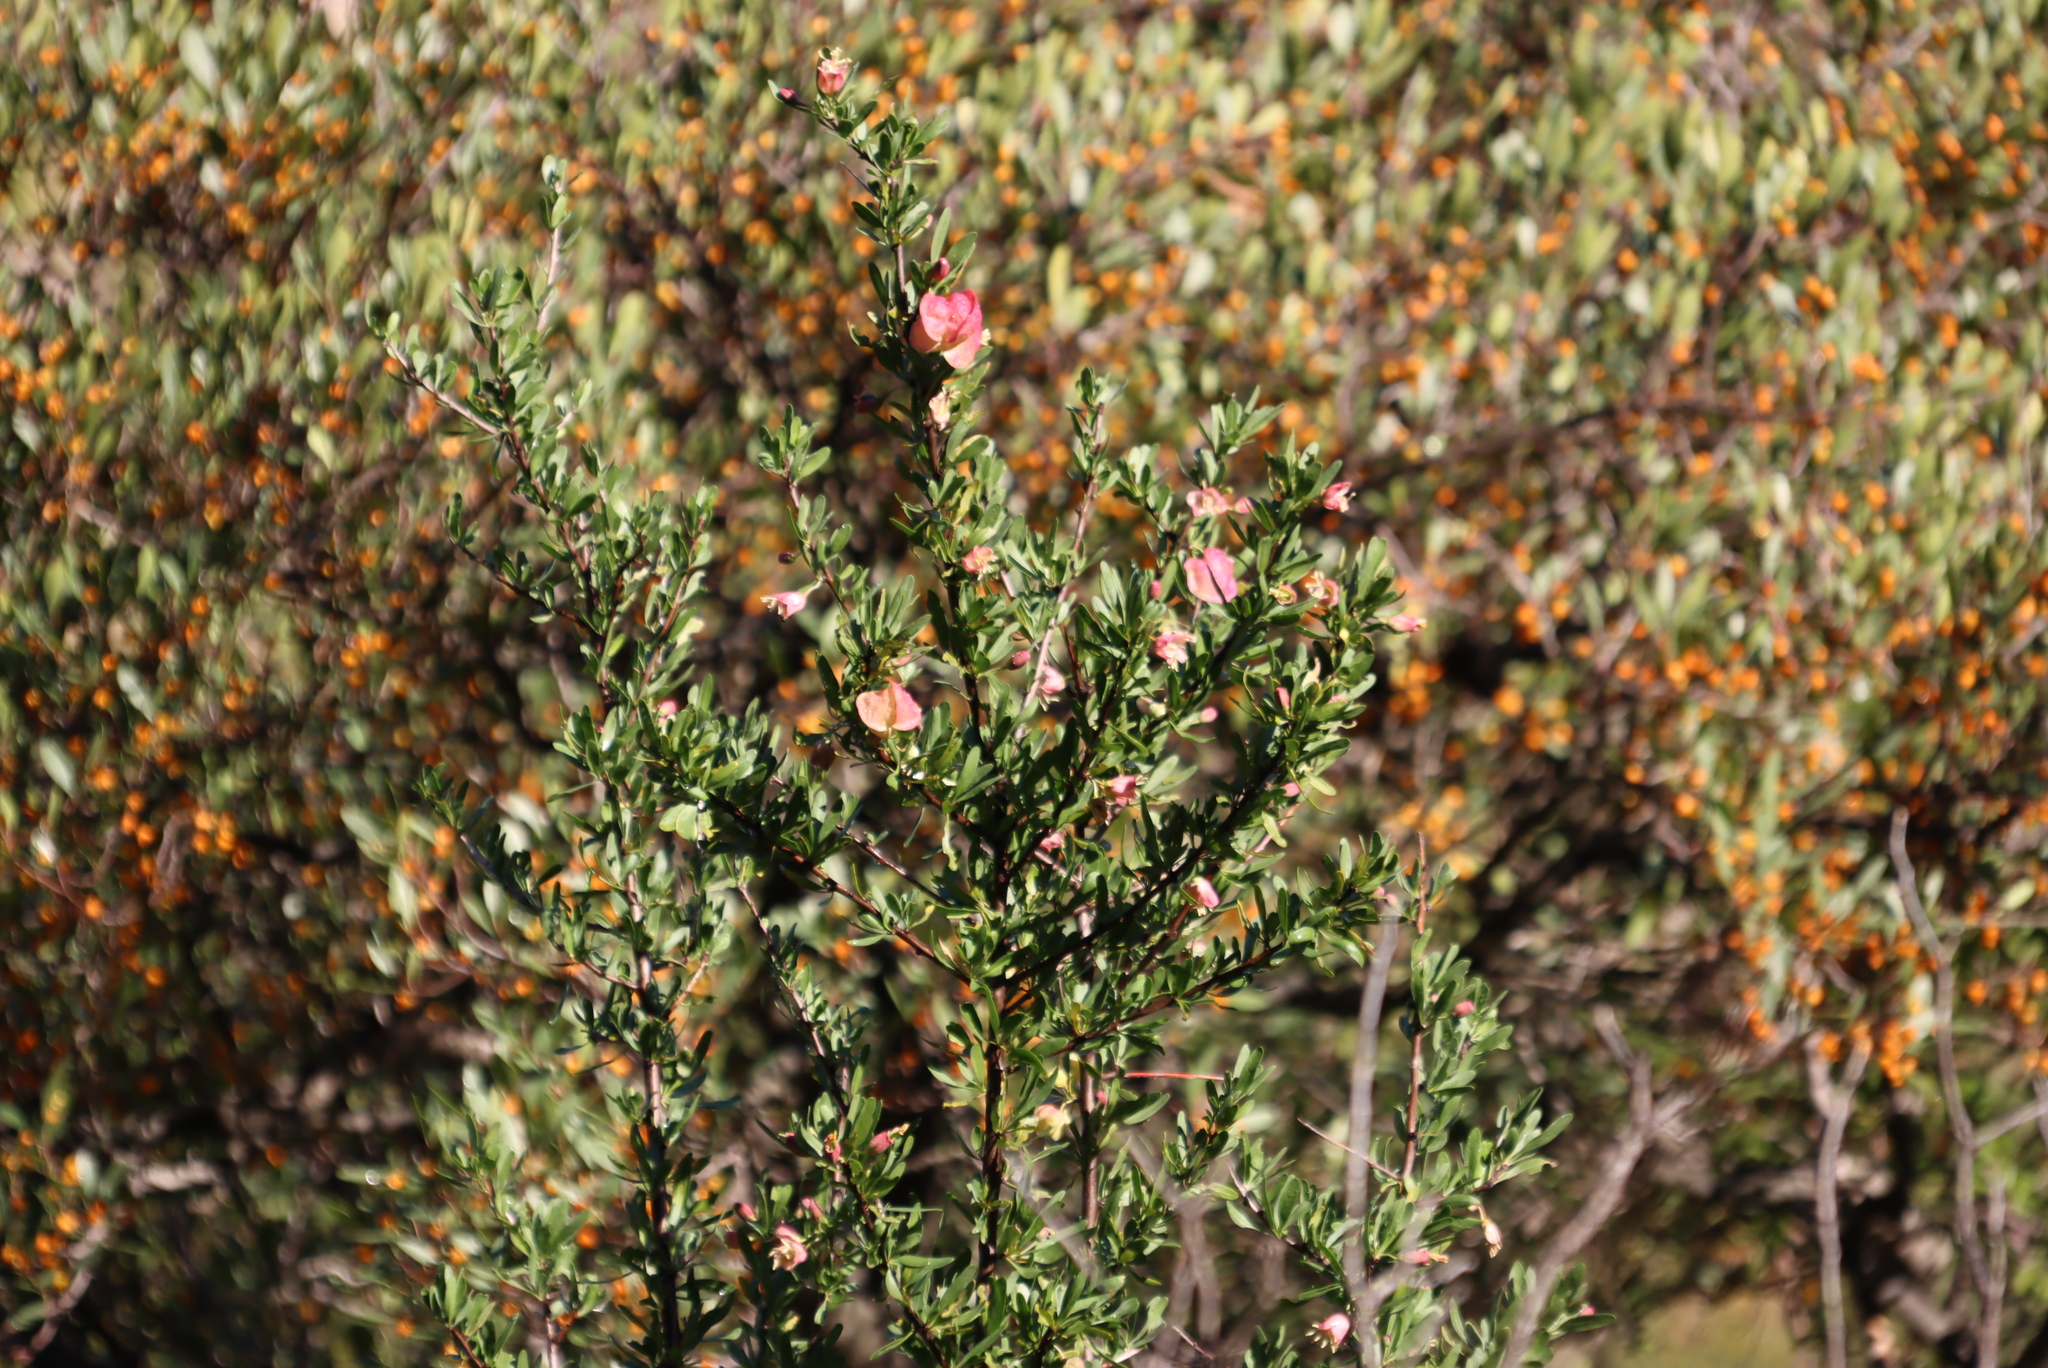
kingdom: Plantae
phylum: Tracheophyta
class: Magnoliopsida
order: Sapindales
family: Meliaceae
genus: Nymania
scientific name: Nymania capensis
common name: Chinese lantern tree
